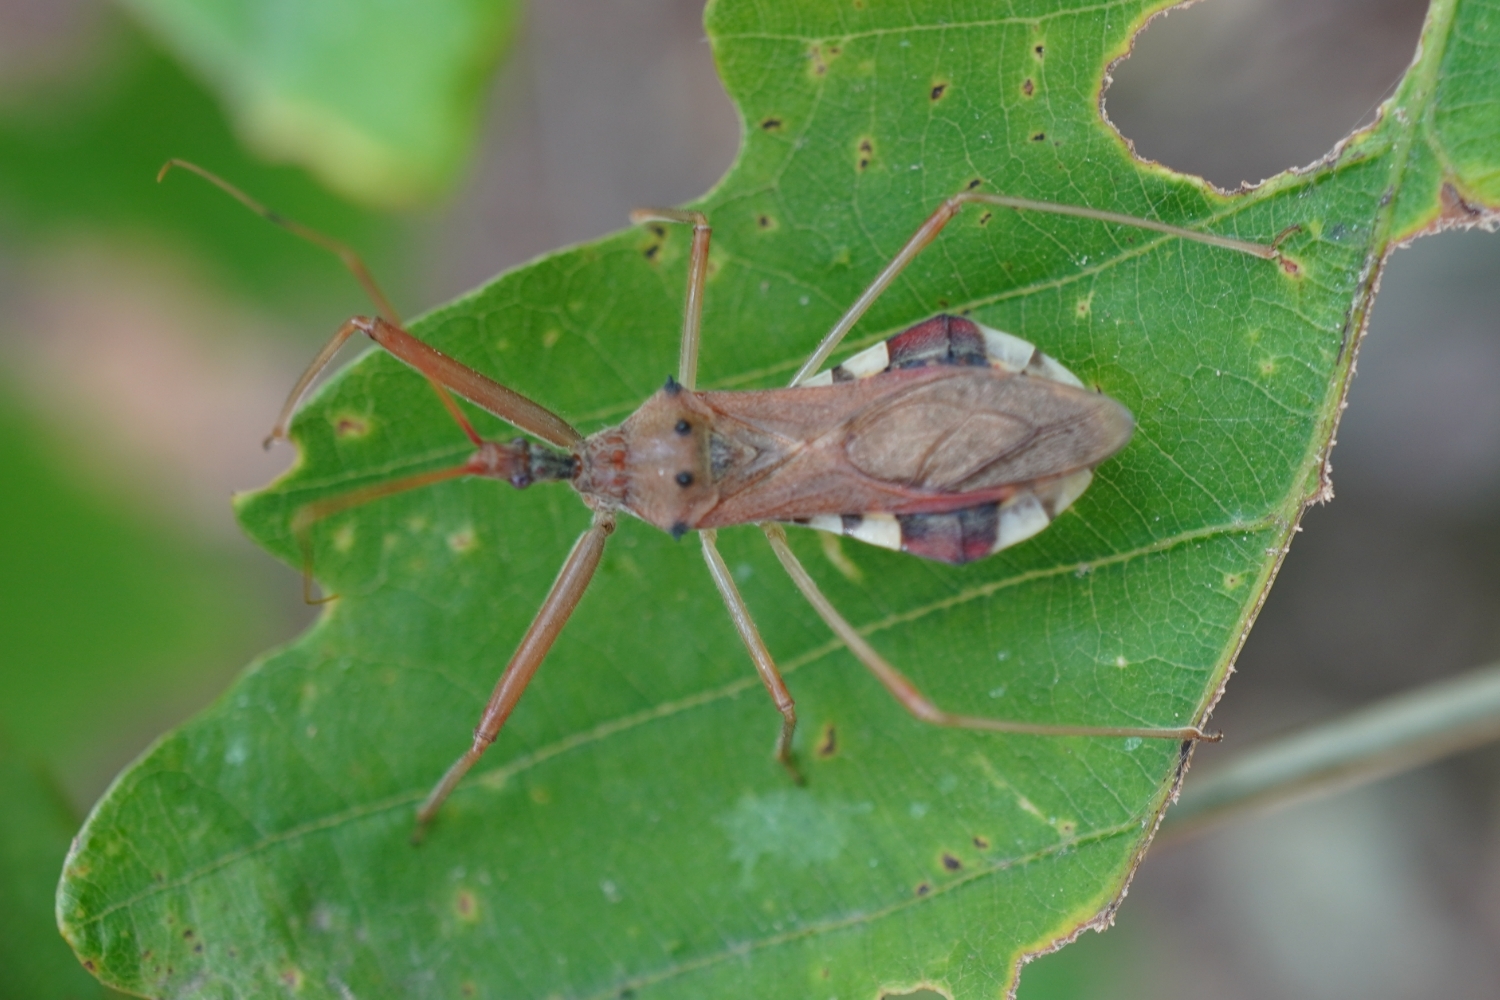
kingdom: Animalia
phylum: Arthropoda
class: Insecta
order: Hemiptera
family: Reduviidae
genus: Epidaus
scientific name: Epidaus tuberosus
